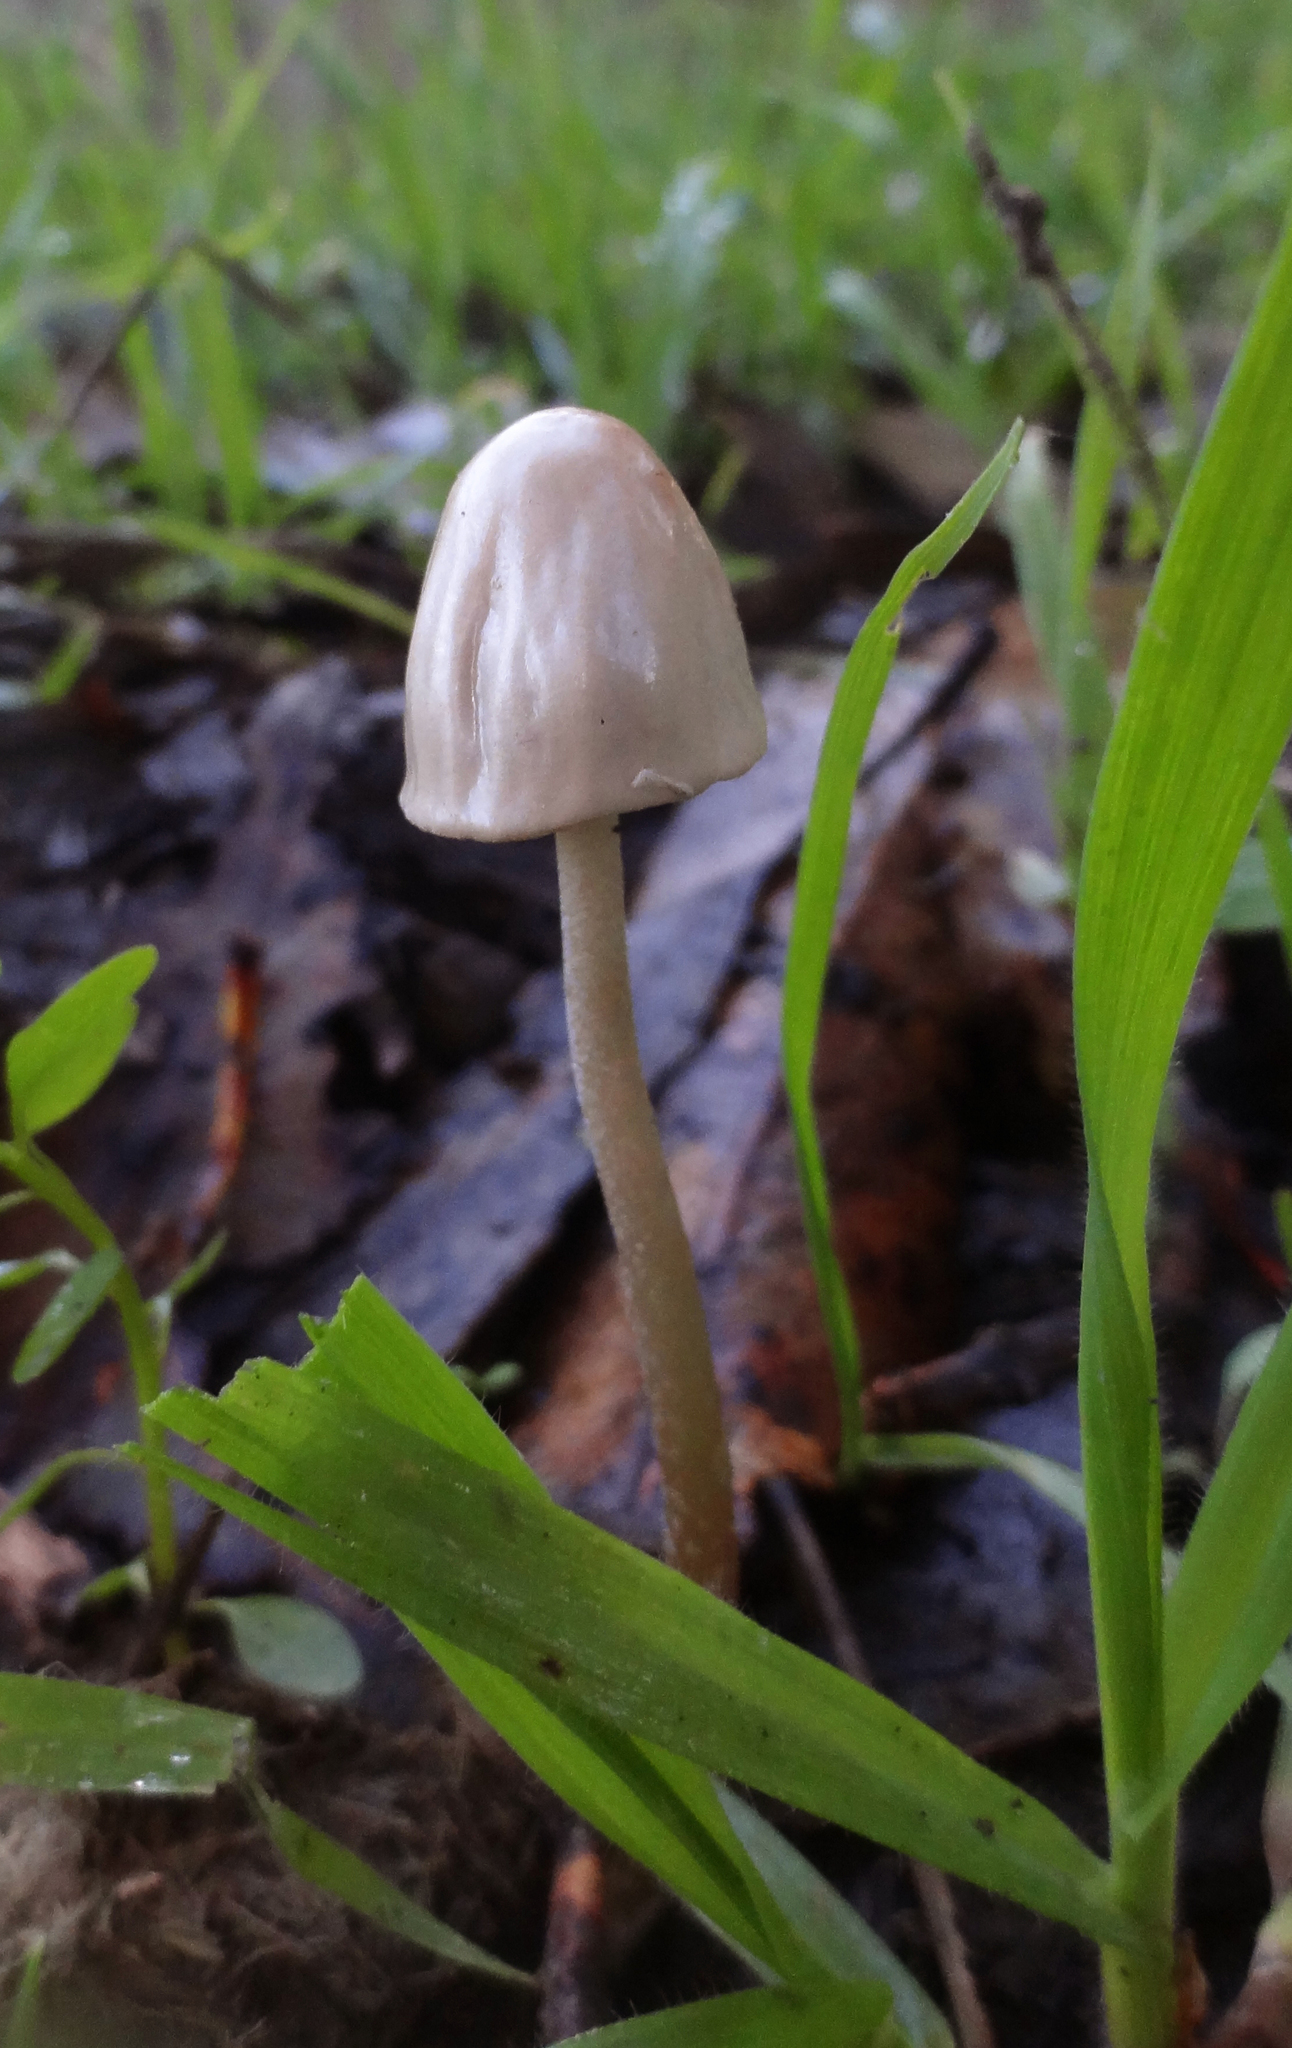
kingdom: Fungi
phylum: Basidiomycota
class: Agaricomycetes
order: Agaricales
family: Bolbitiaceae
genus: Panaeolus
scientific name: Panaeolus semiovatus
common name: Shiny mottlegill
